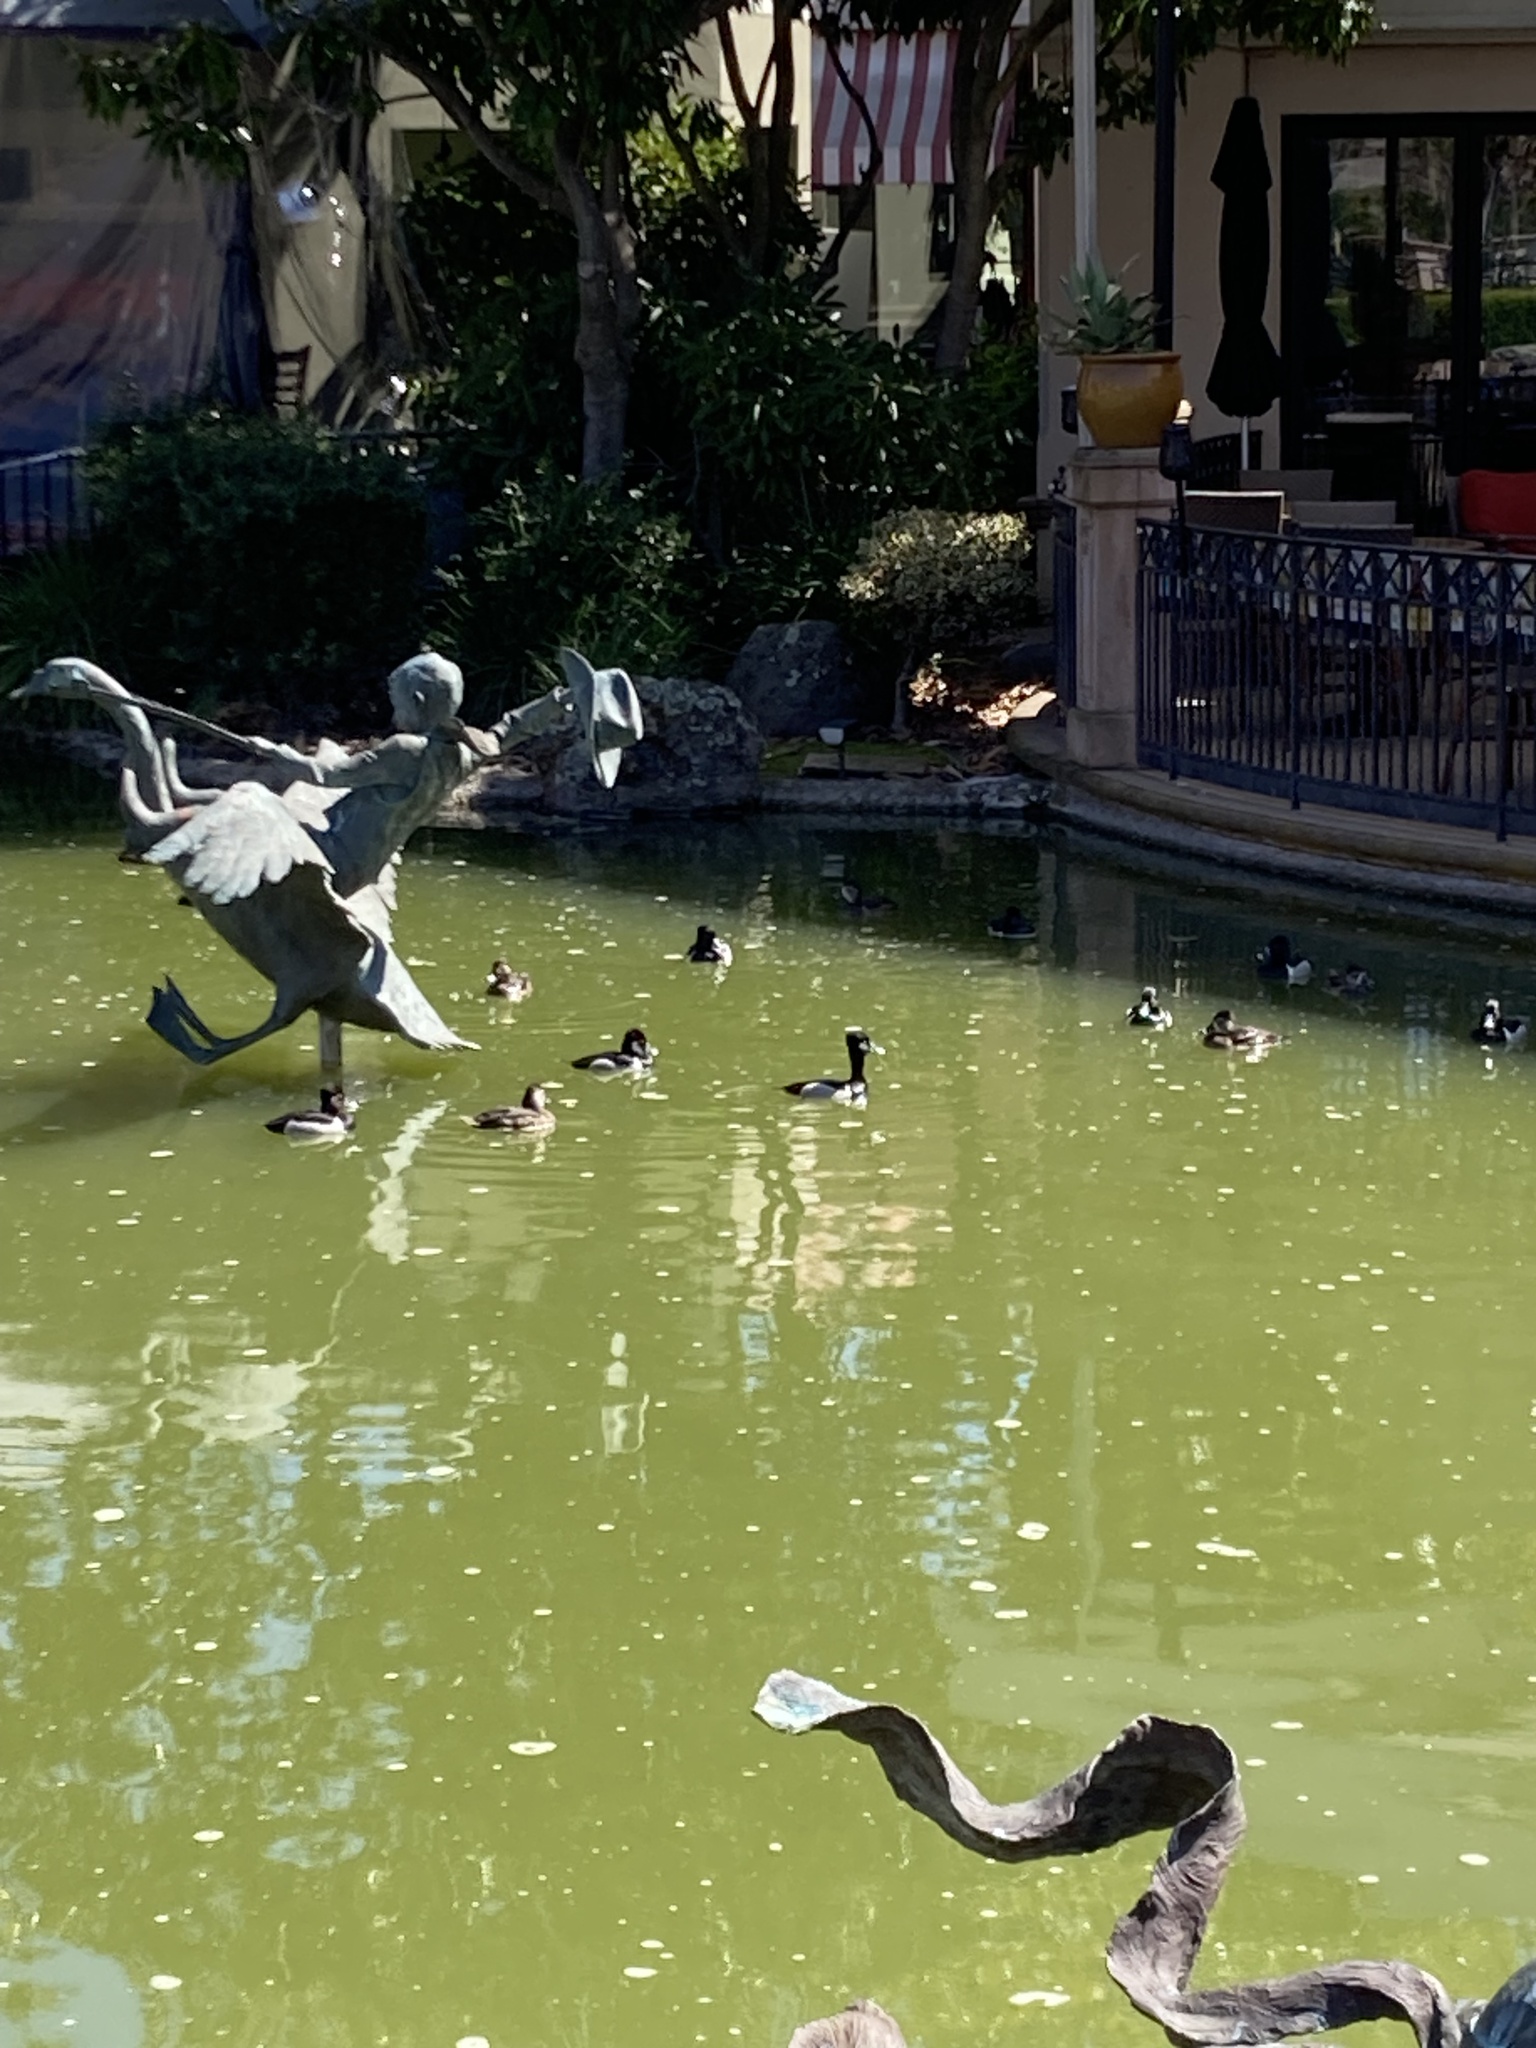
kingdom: Animalia
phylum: Chordata
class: Aves
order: Anseriformes
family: Anatidae
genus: Aythya
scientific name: Aythya collaris
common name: Ring-necked duck
